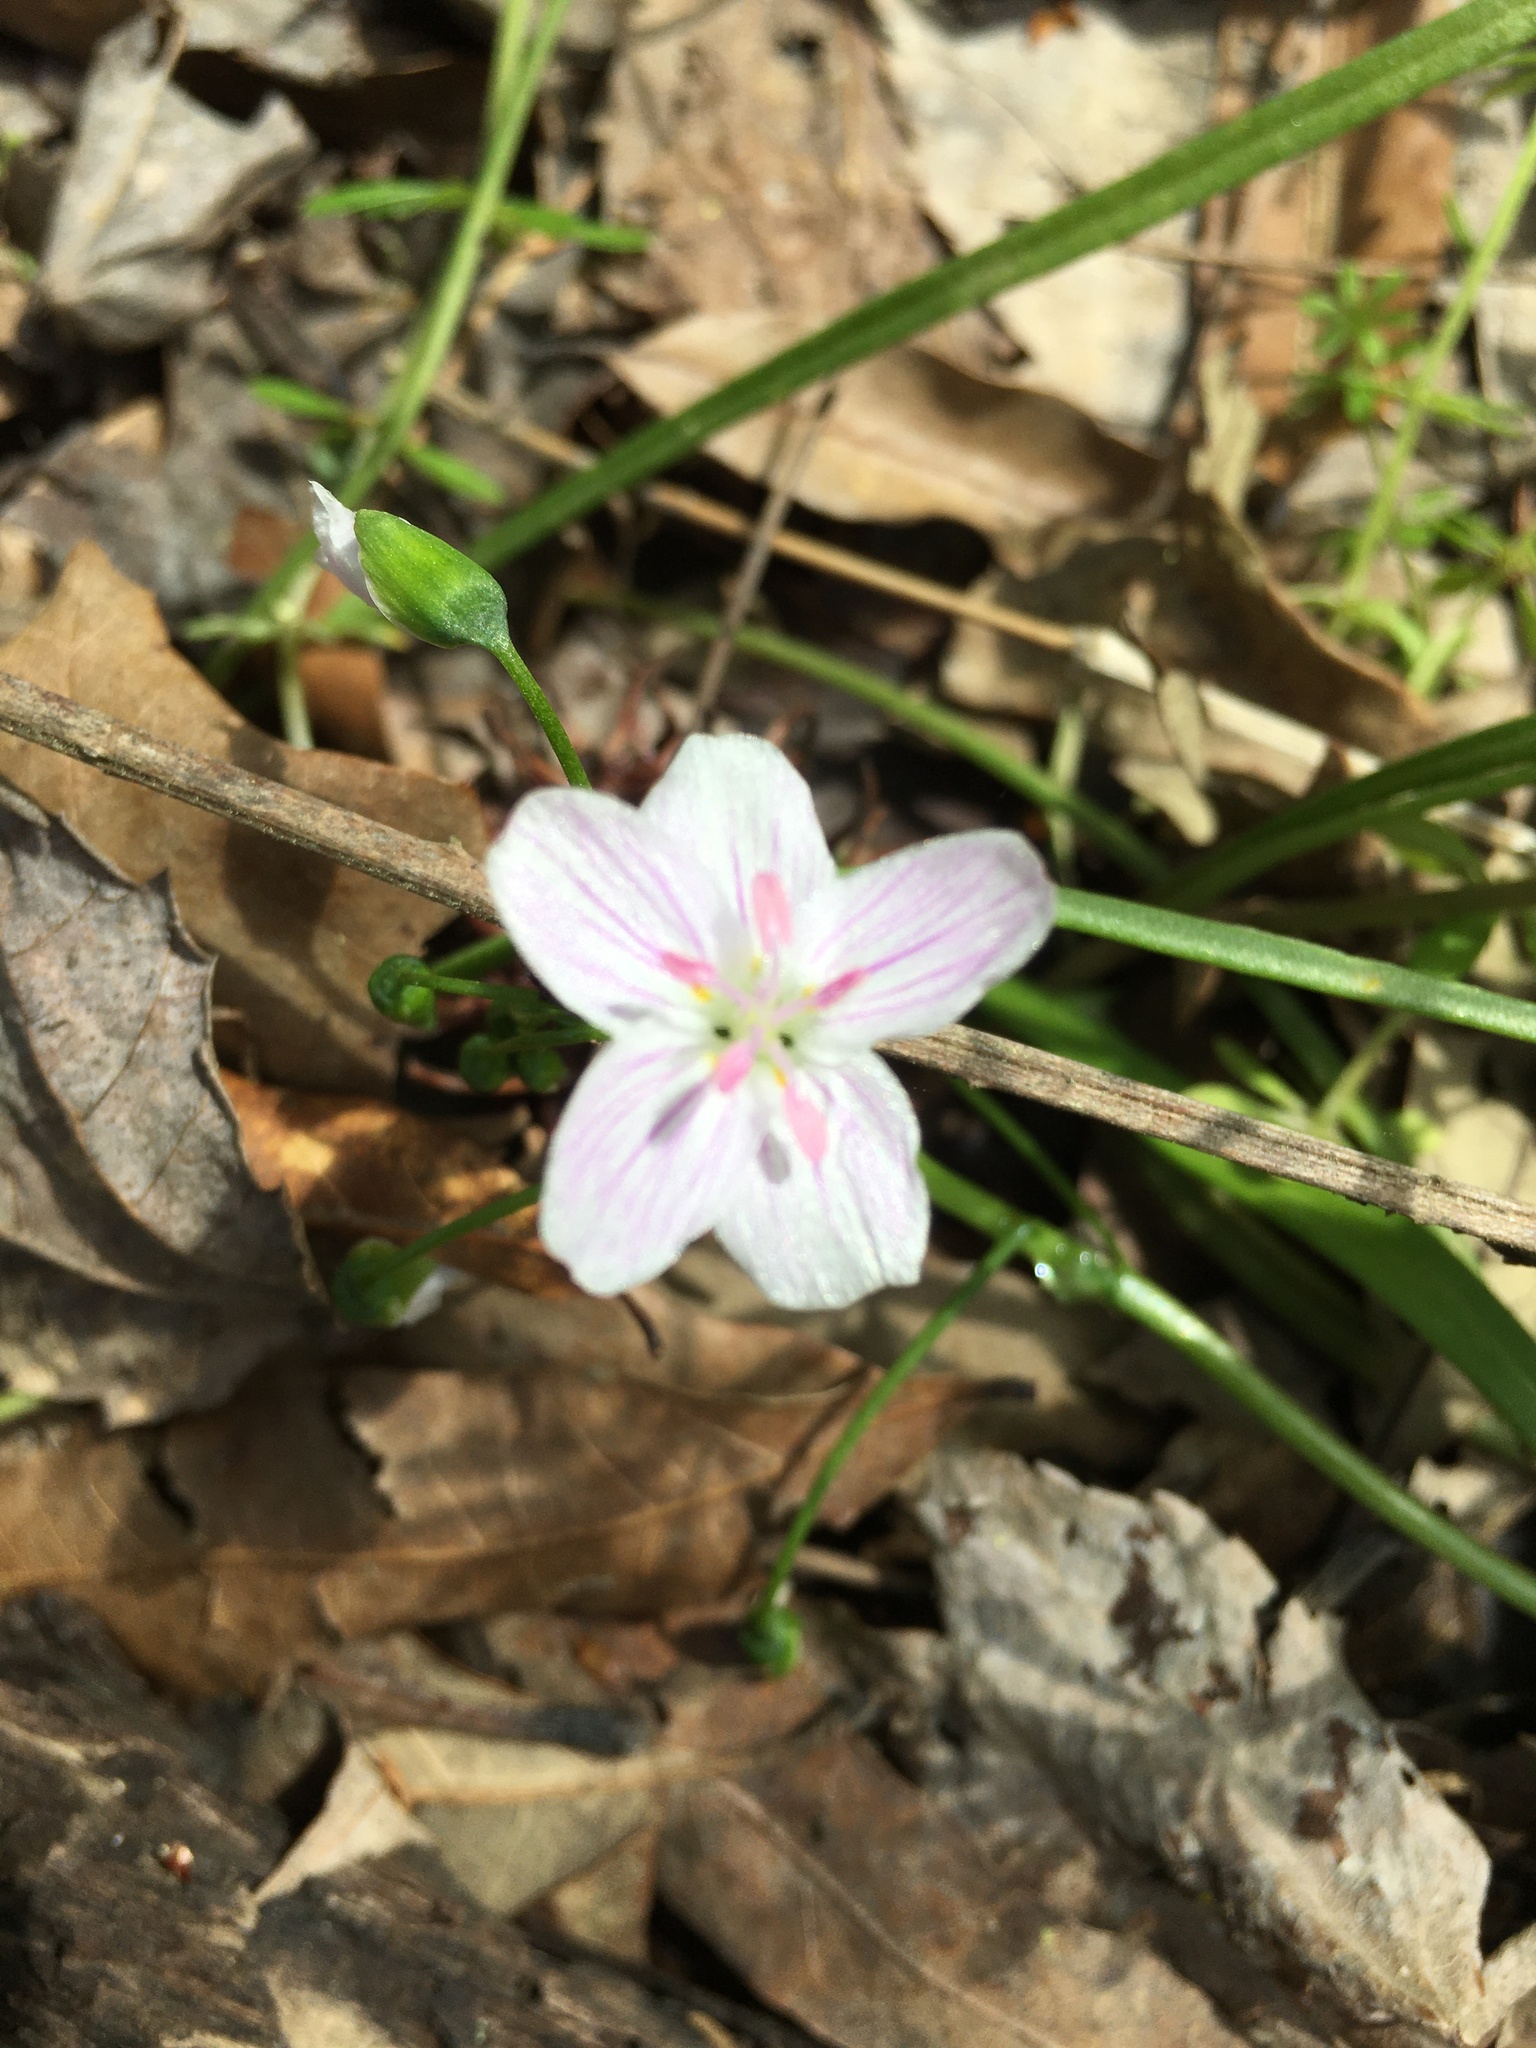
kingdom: Plantae
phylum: Tracheophyta
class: Magnoliopsida
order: Caryophyllales
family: Montiaceae
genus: Claytonia
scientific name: Claytonia virginica
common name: Virginia springbeauty
